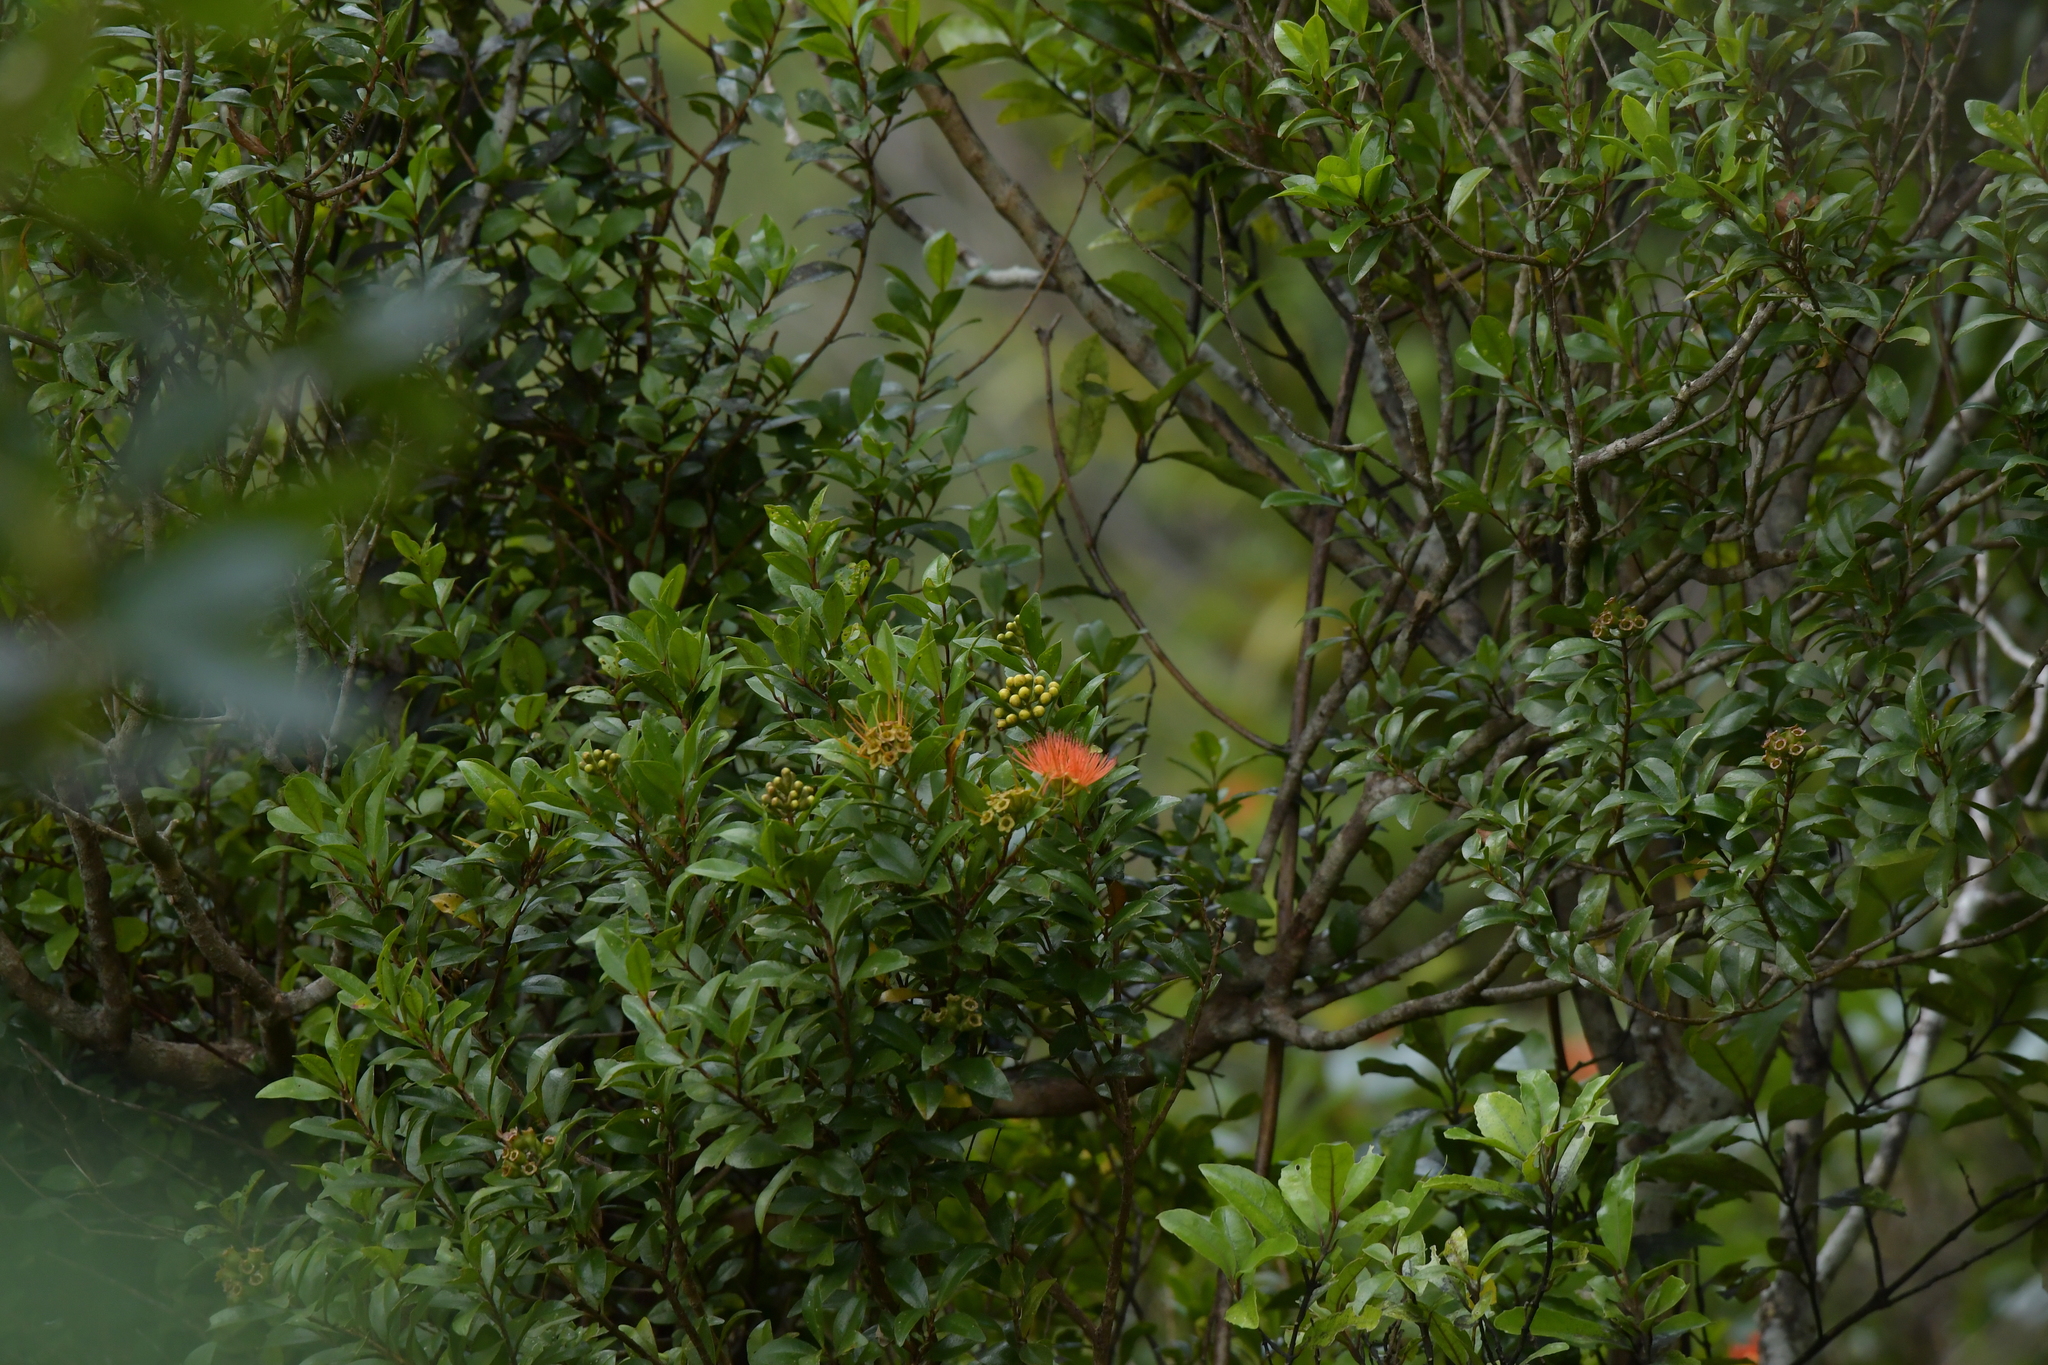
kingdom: Plantae
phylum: Tracheophyta
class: Magnoliopsida
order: Myrtales
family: Myrtaceae
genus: Metrosideros
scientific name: Metrosideros fulgens
